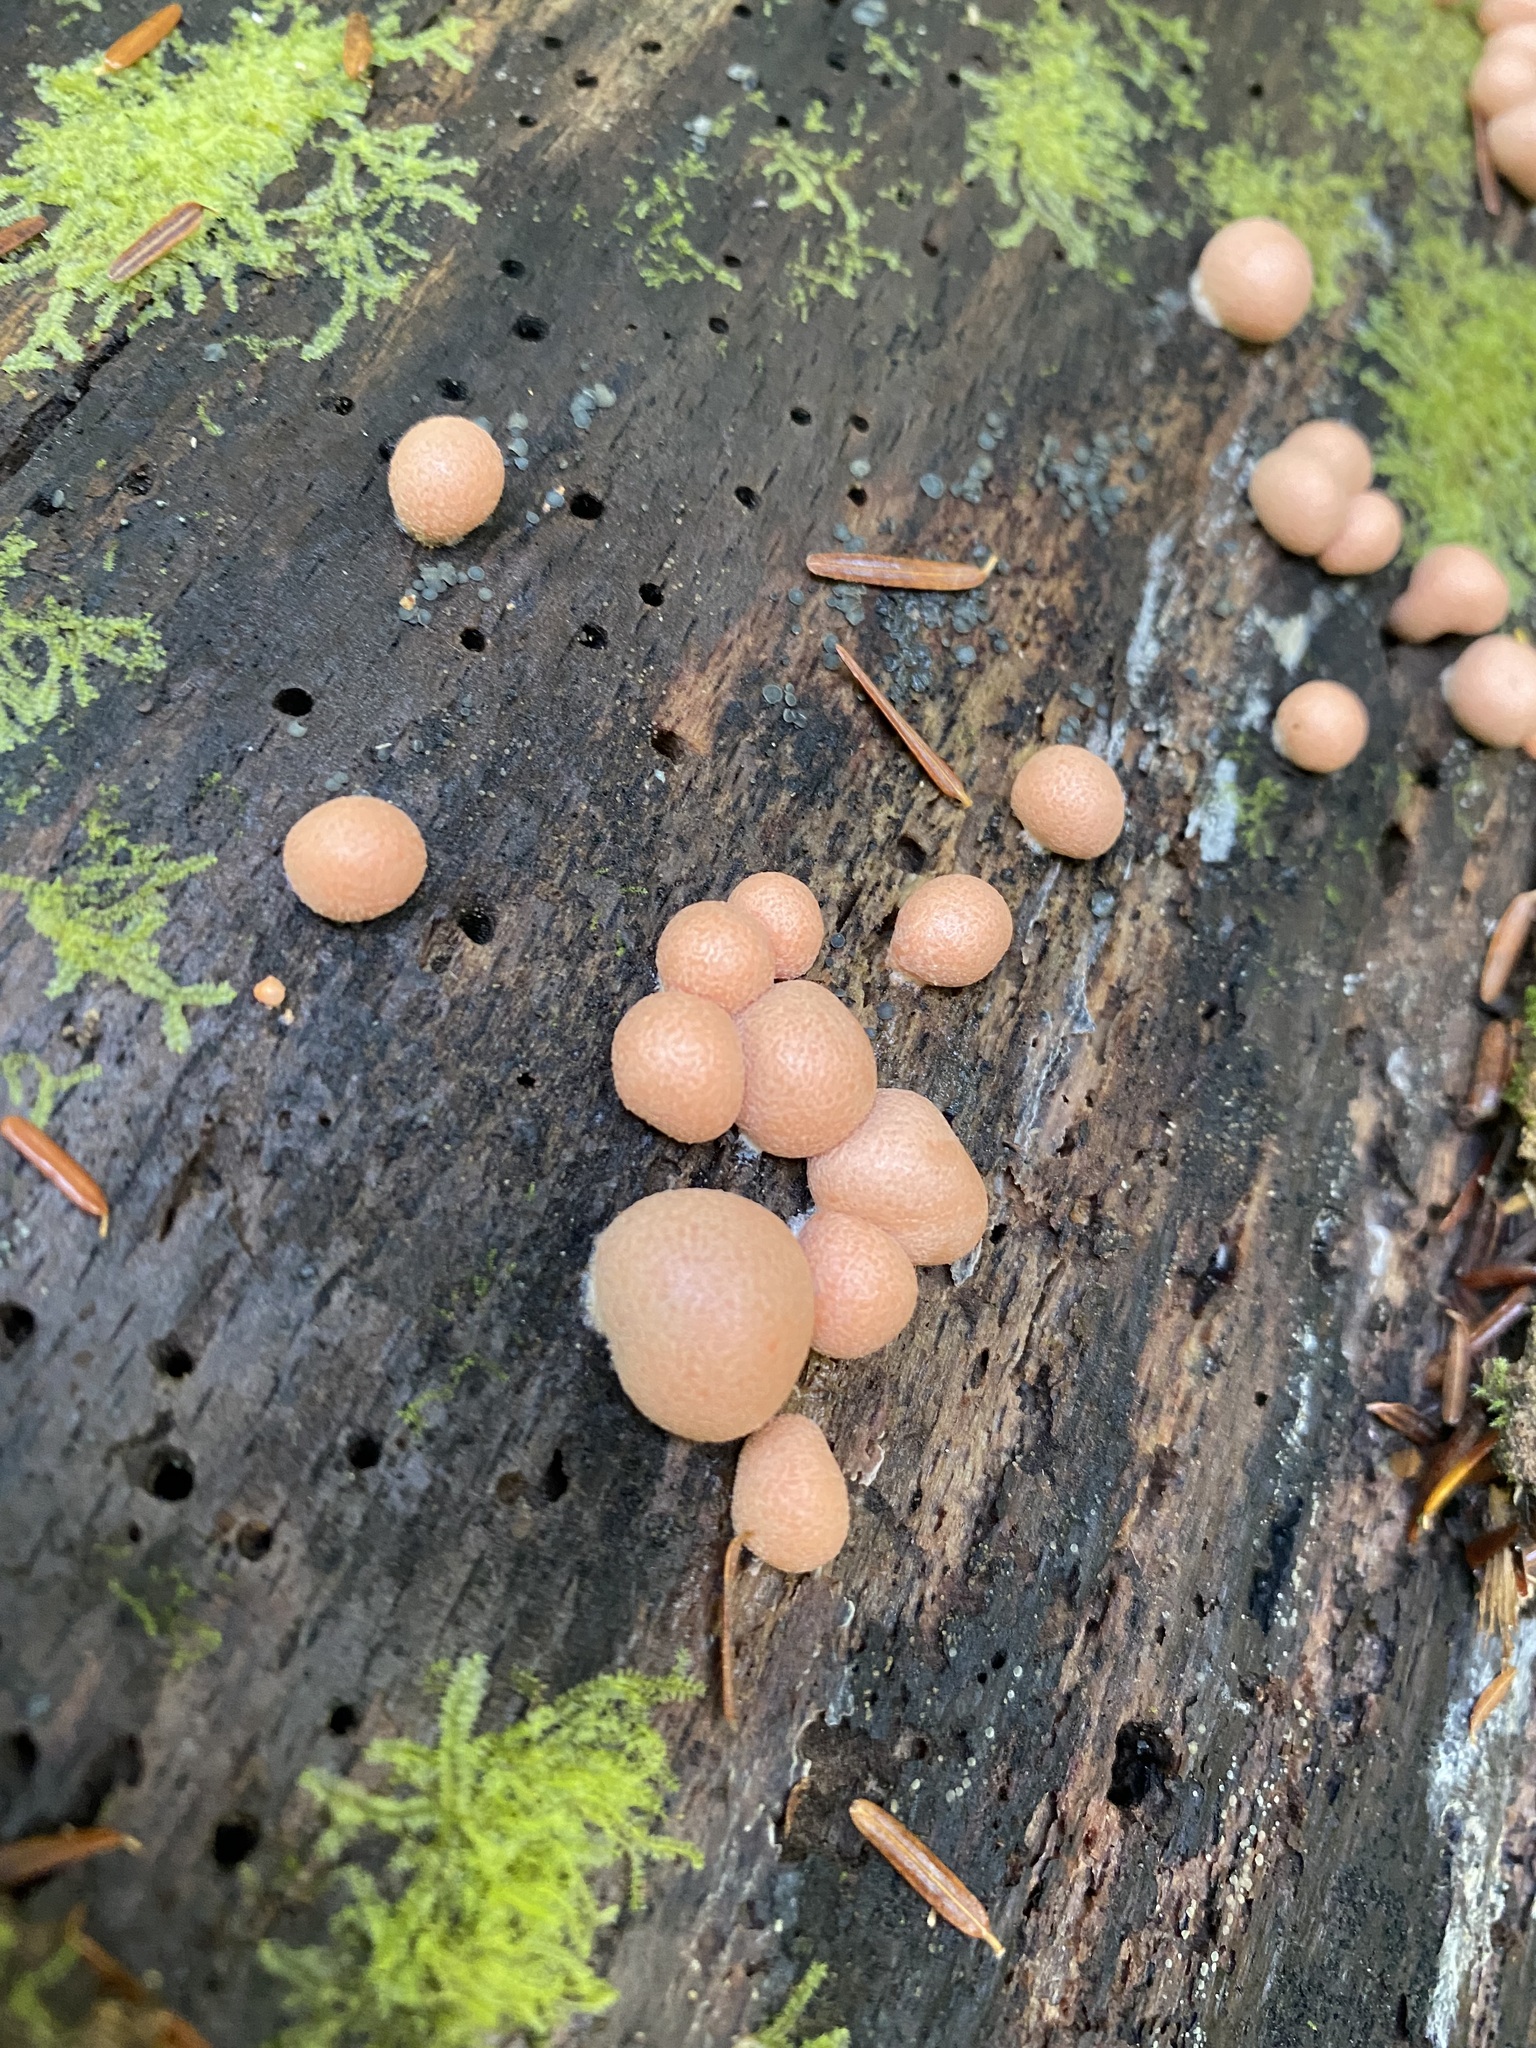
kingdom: Protozoa
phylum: Mycetozoa
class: Myxomycetes
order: Cribrariales
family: Tubiferaceae
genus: Lycogala
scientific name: Lycogala epidendrum
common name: Wolf's milk
